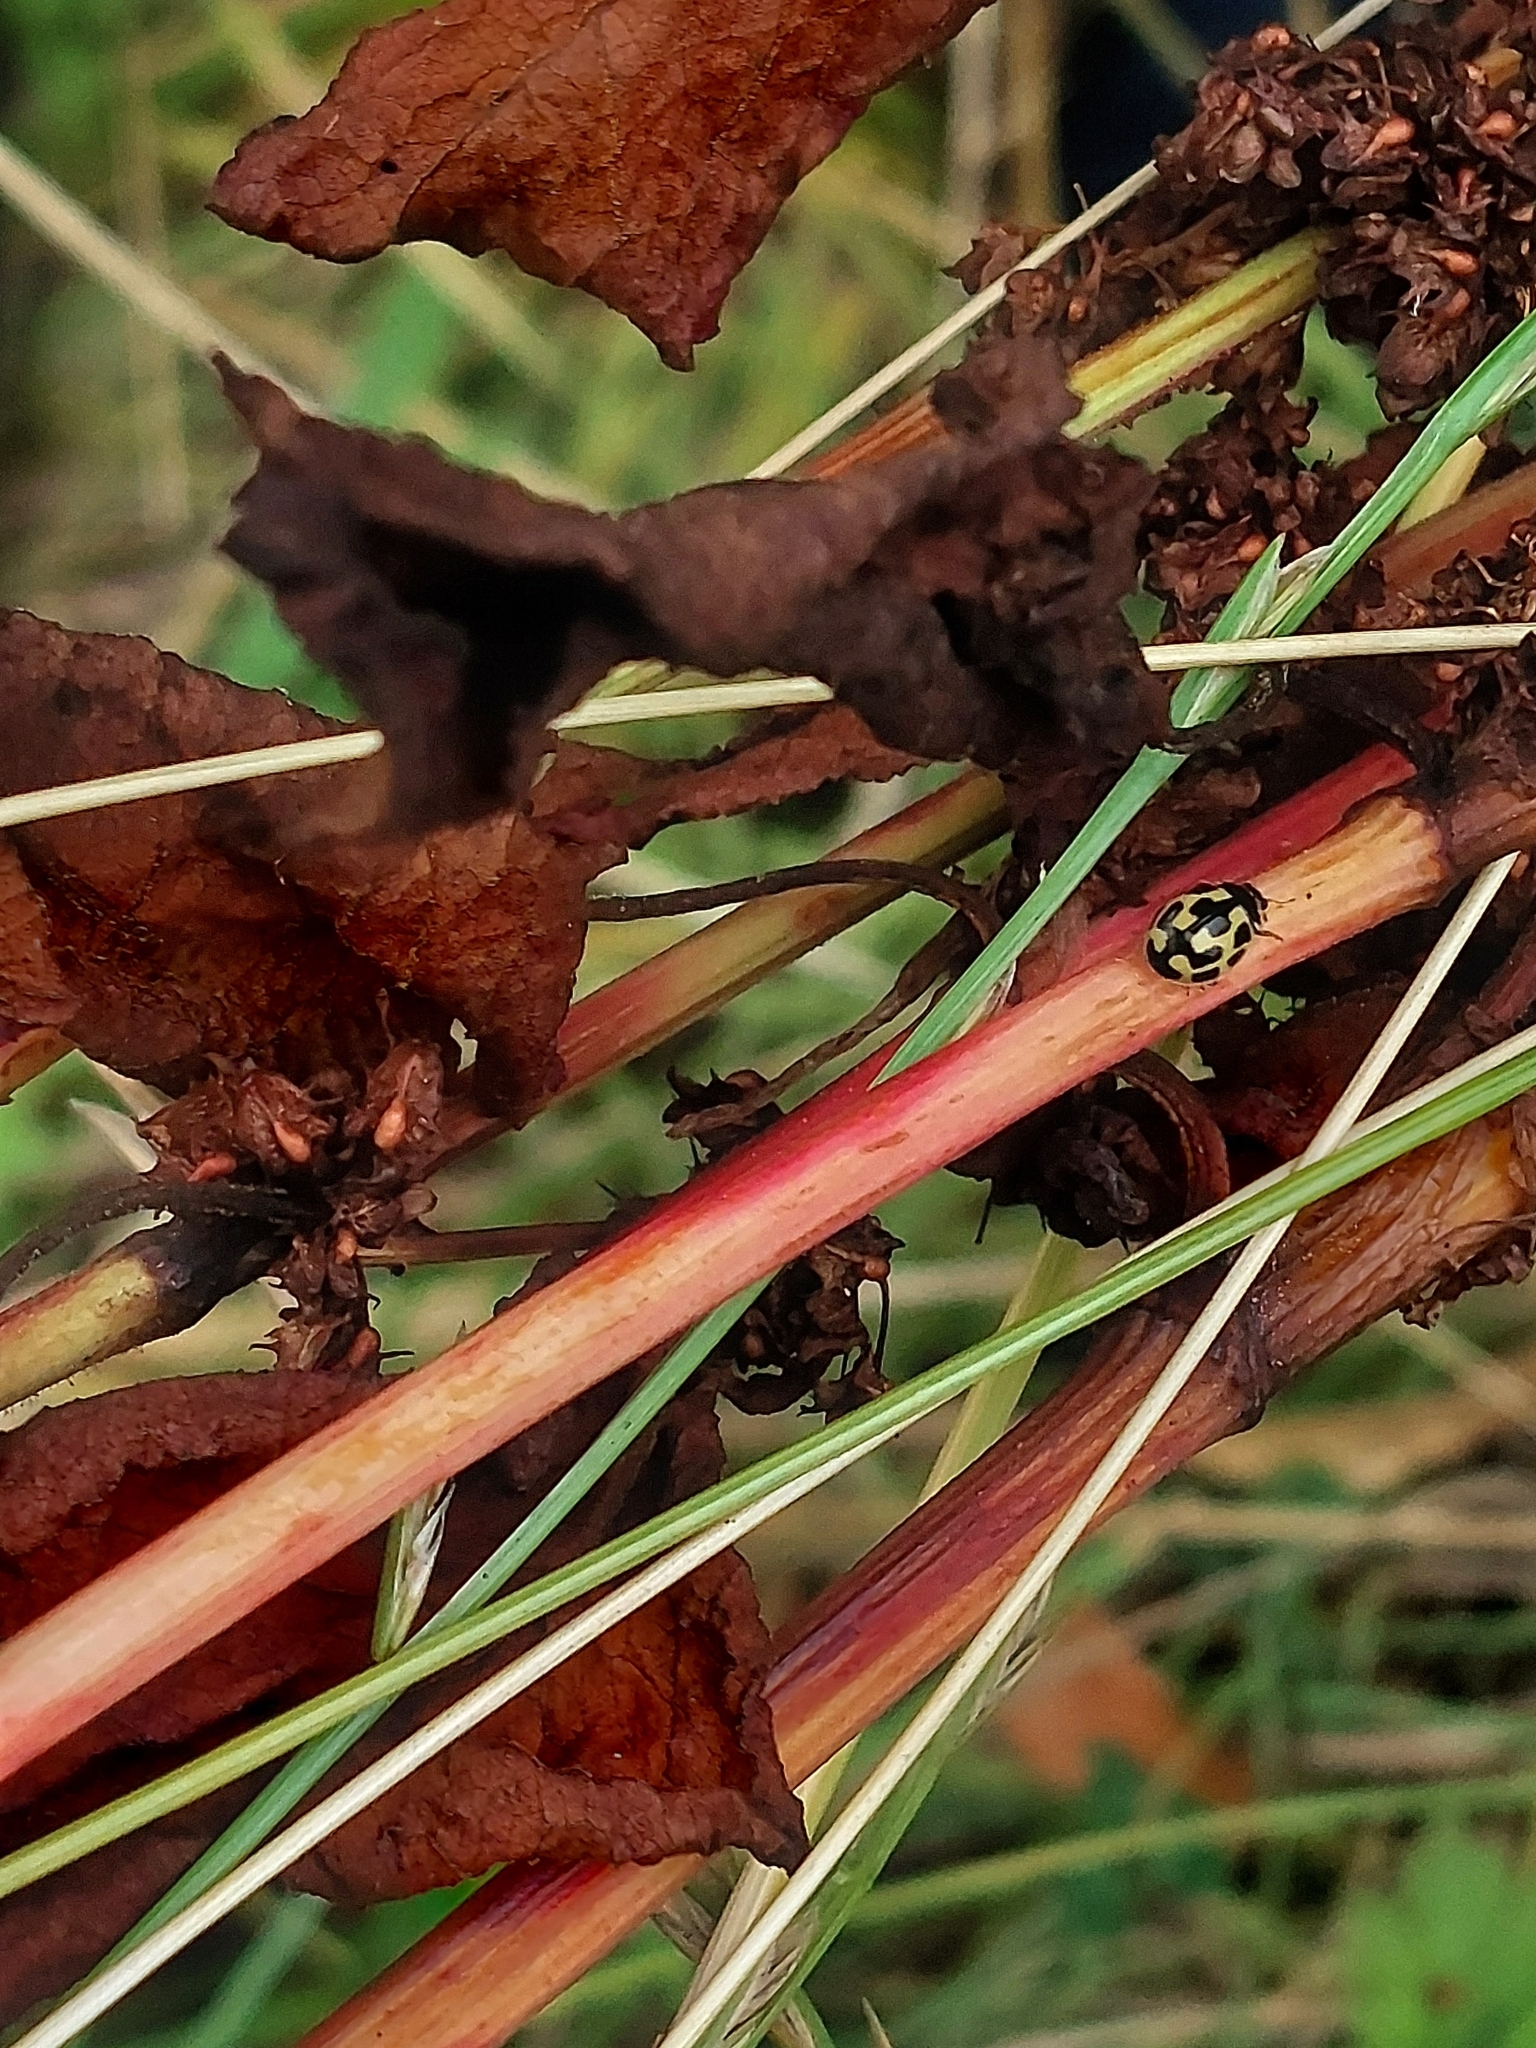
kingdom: Animalia
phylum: Arthropoda
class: Insecta
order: Coleoptera
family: Coccinellidae
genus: Propylaea
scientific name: Propylaea quatuordecimpunctata
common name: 14-spotted ladybird beetle
